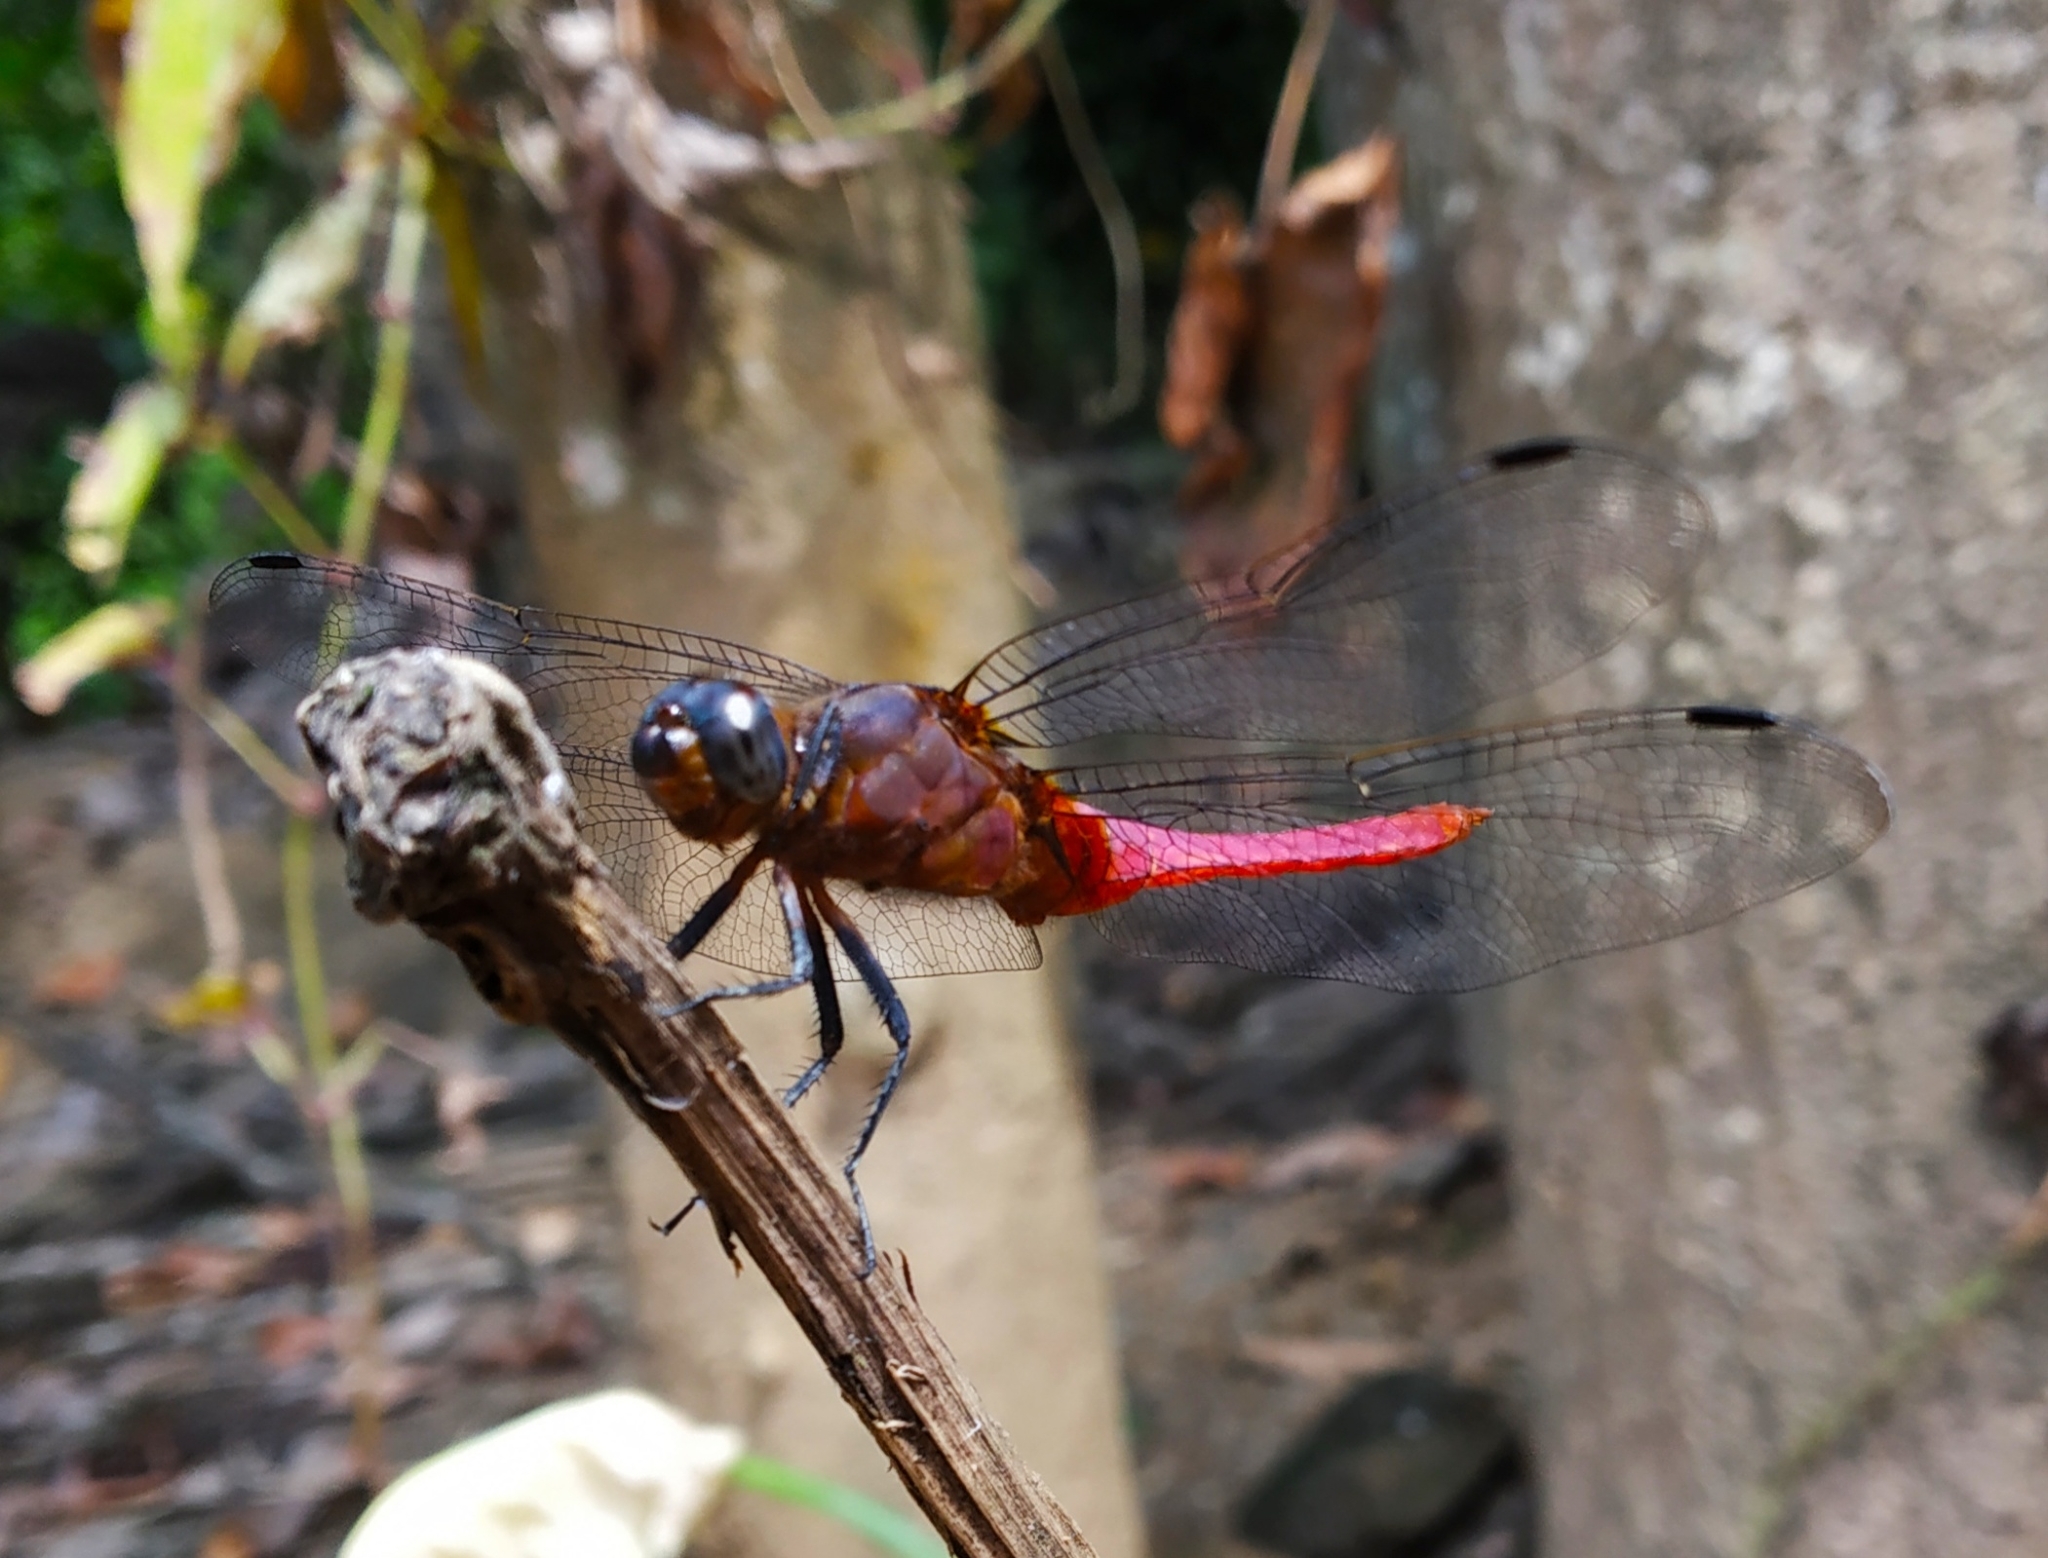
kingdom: Animalia
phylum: Arthropoda
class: Insecta
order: Odonata
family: Libellulidae
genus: Orthetrum
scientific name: Orthetrum pruinosum
